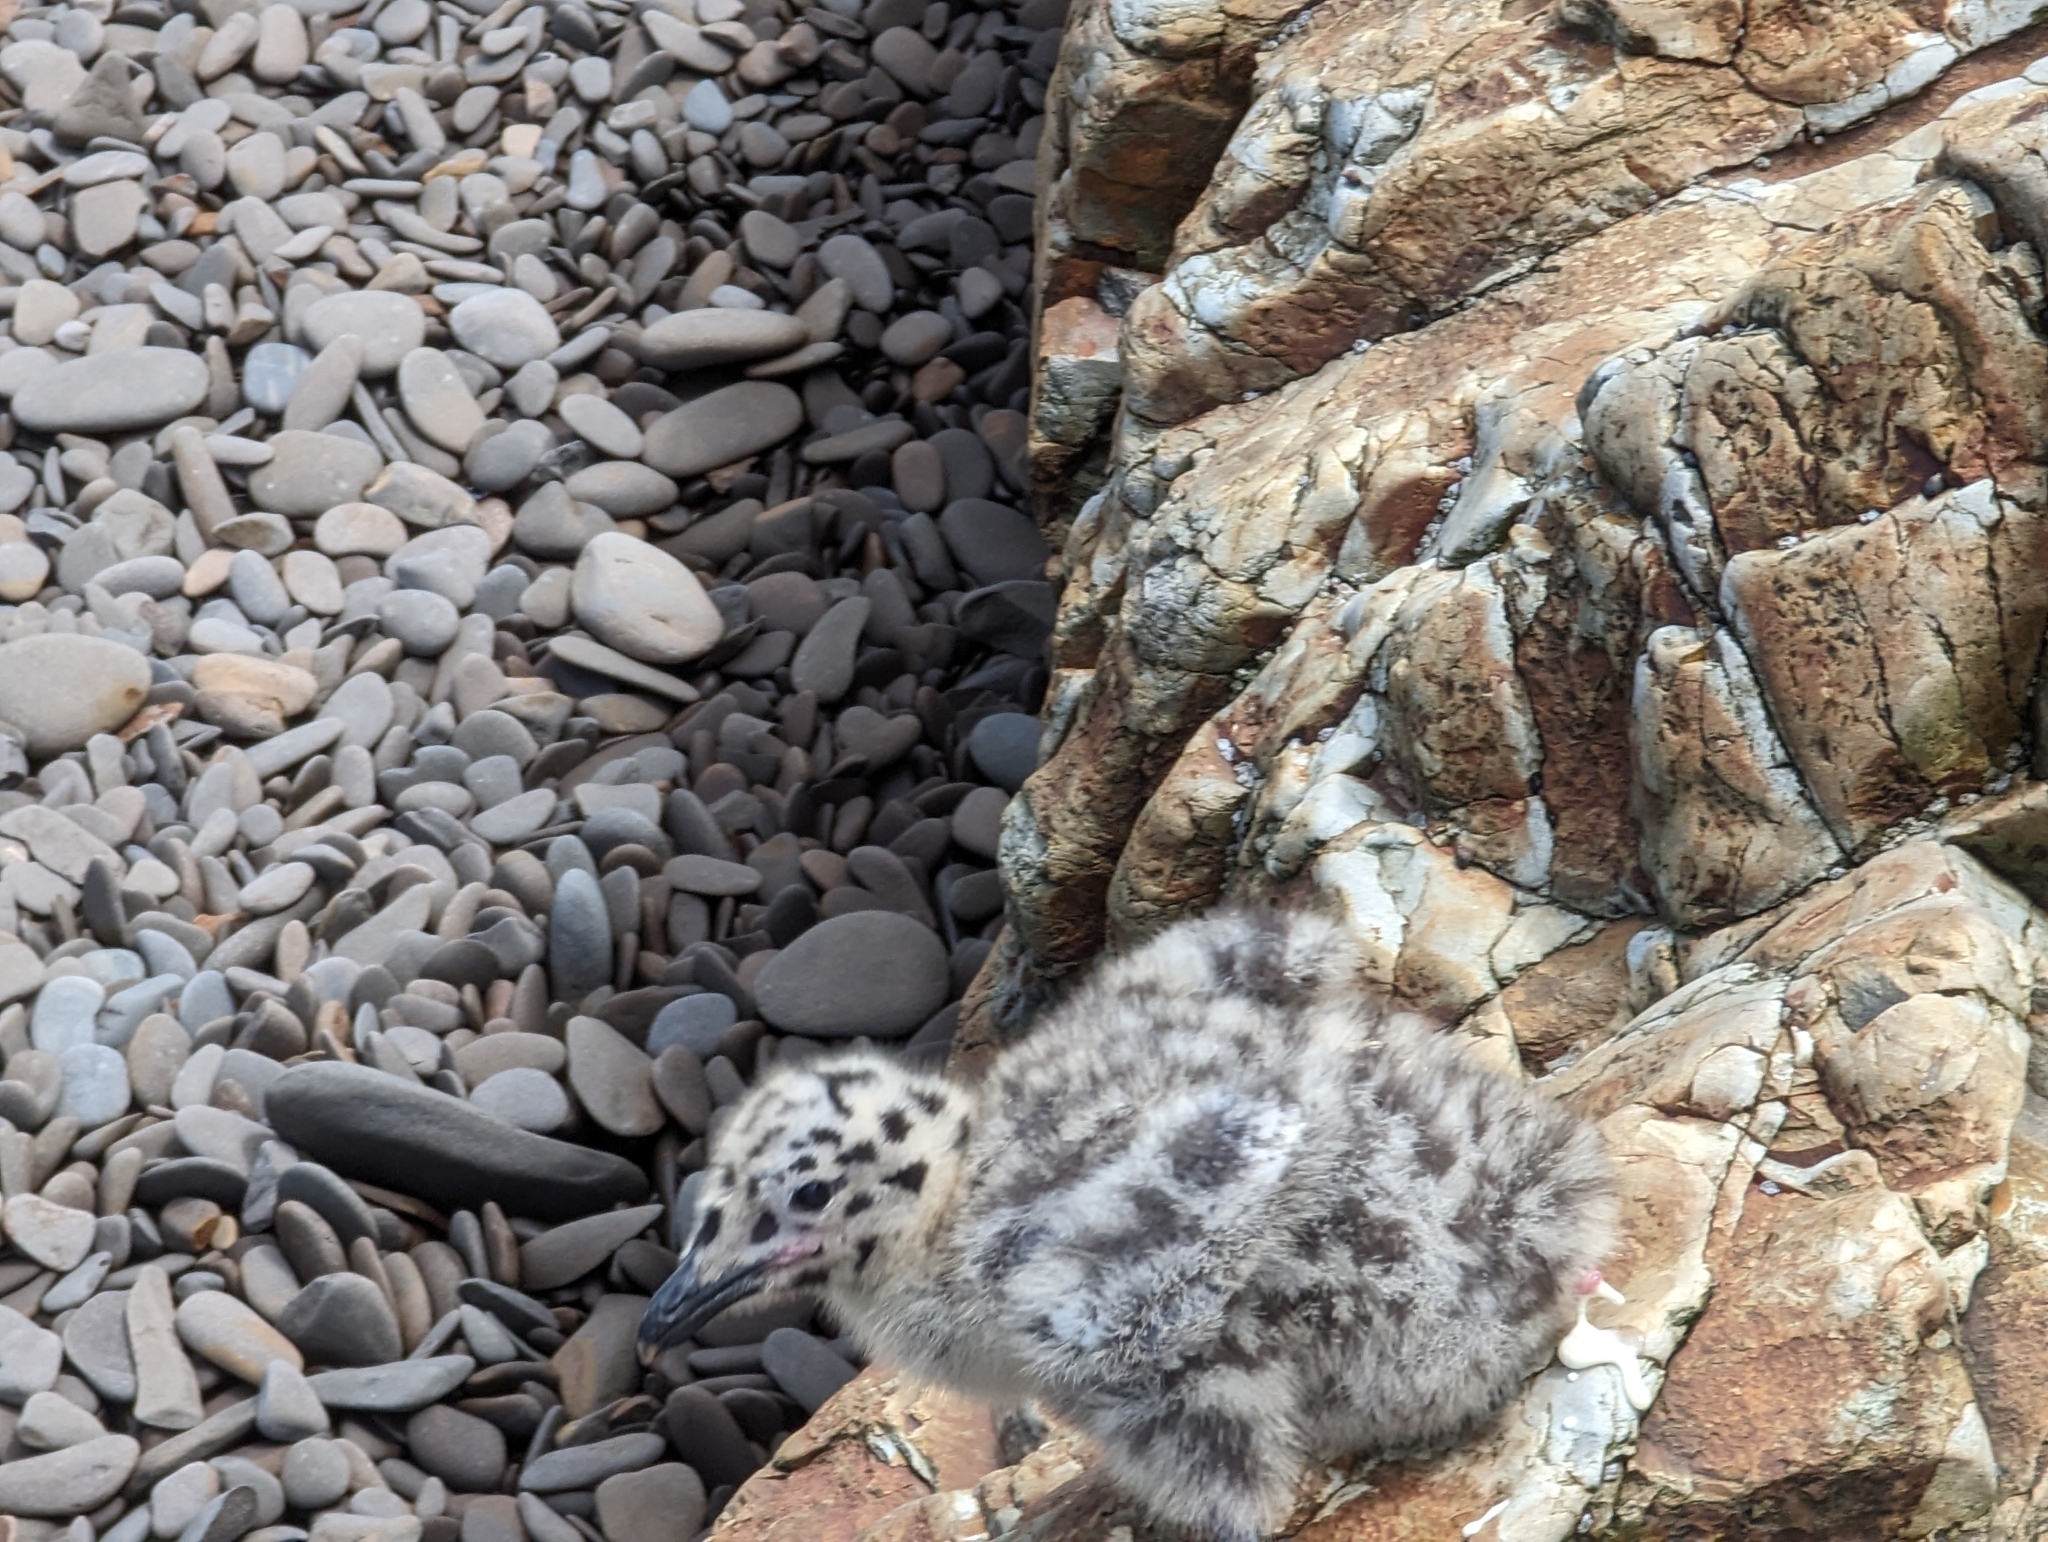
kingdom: Animalia
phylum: Chordata
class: Aves
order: Charadriiformes
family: Laridae
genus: Larus
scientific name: Larus occidentalis
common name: Western gull
